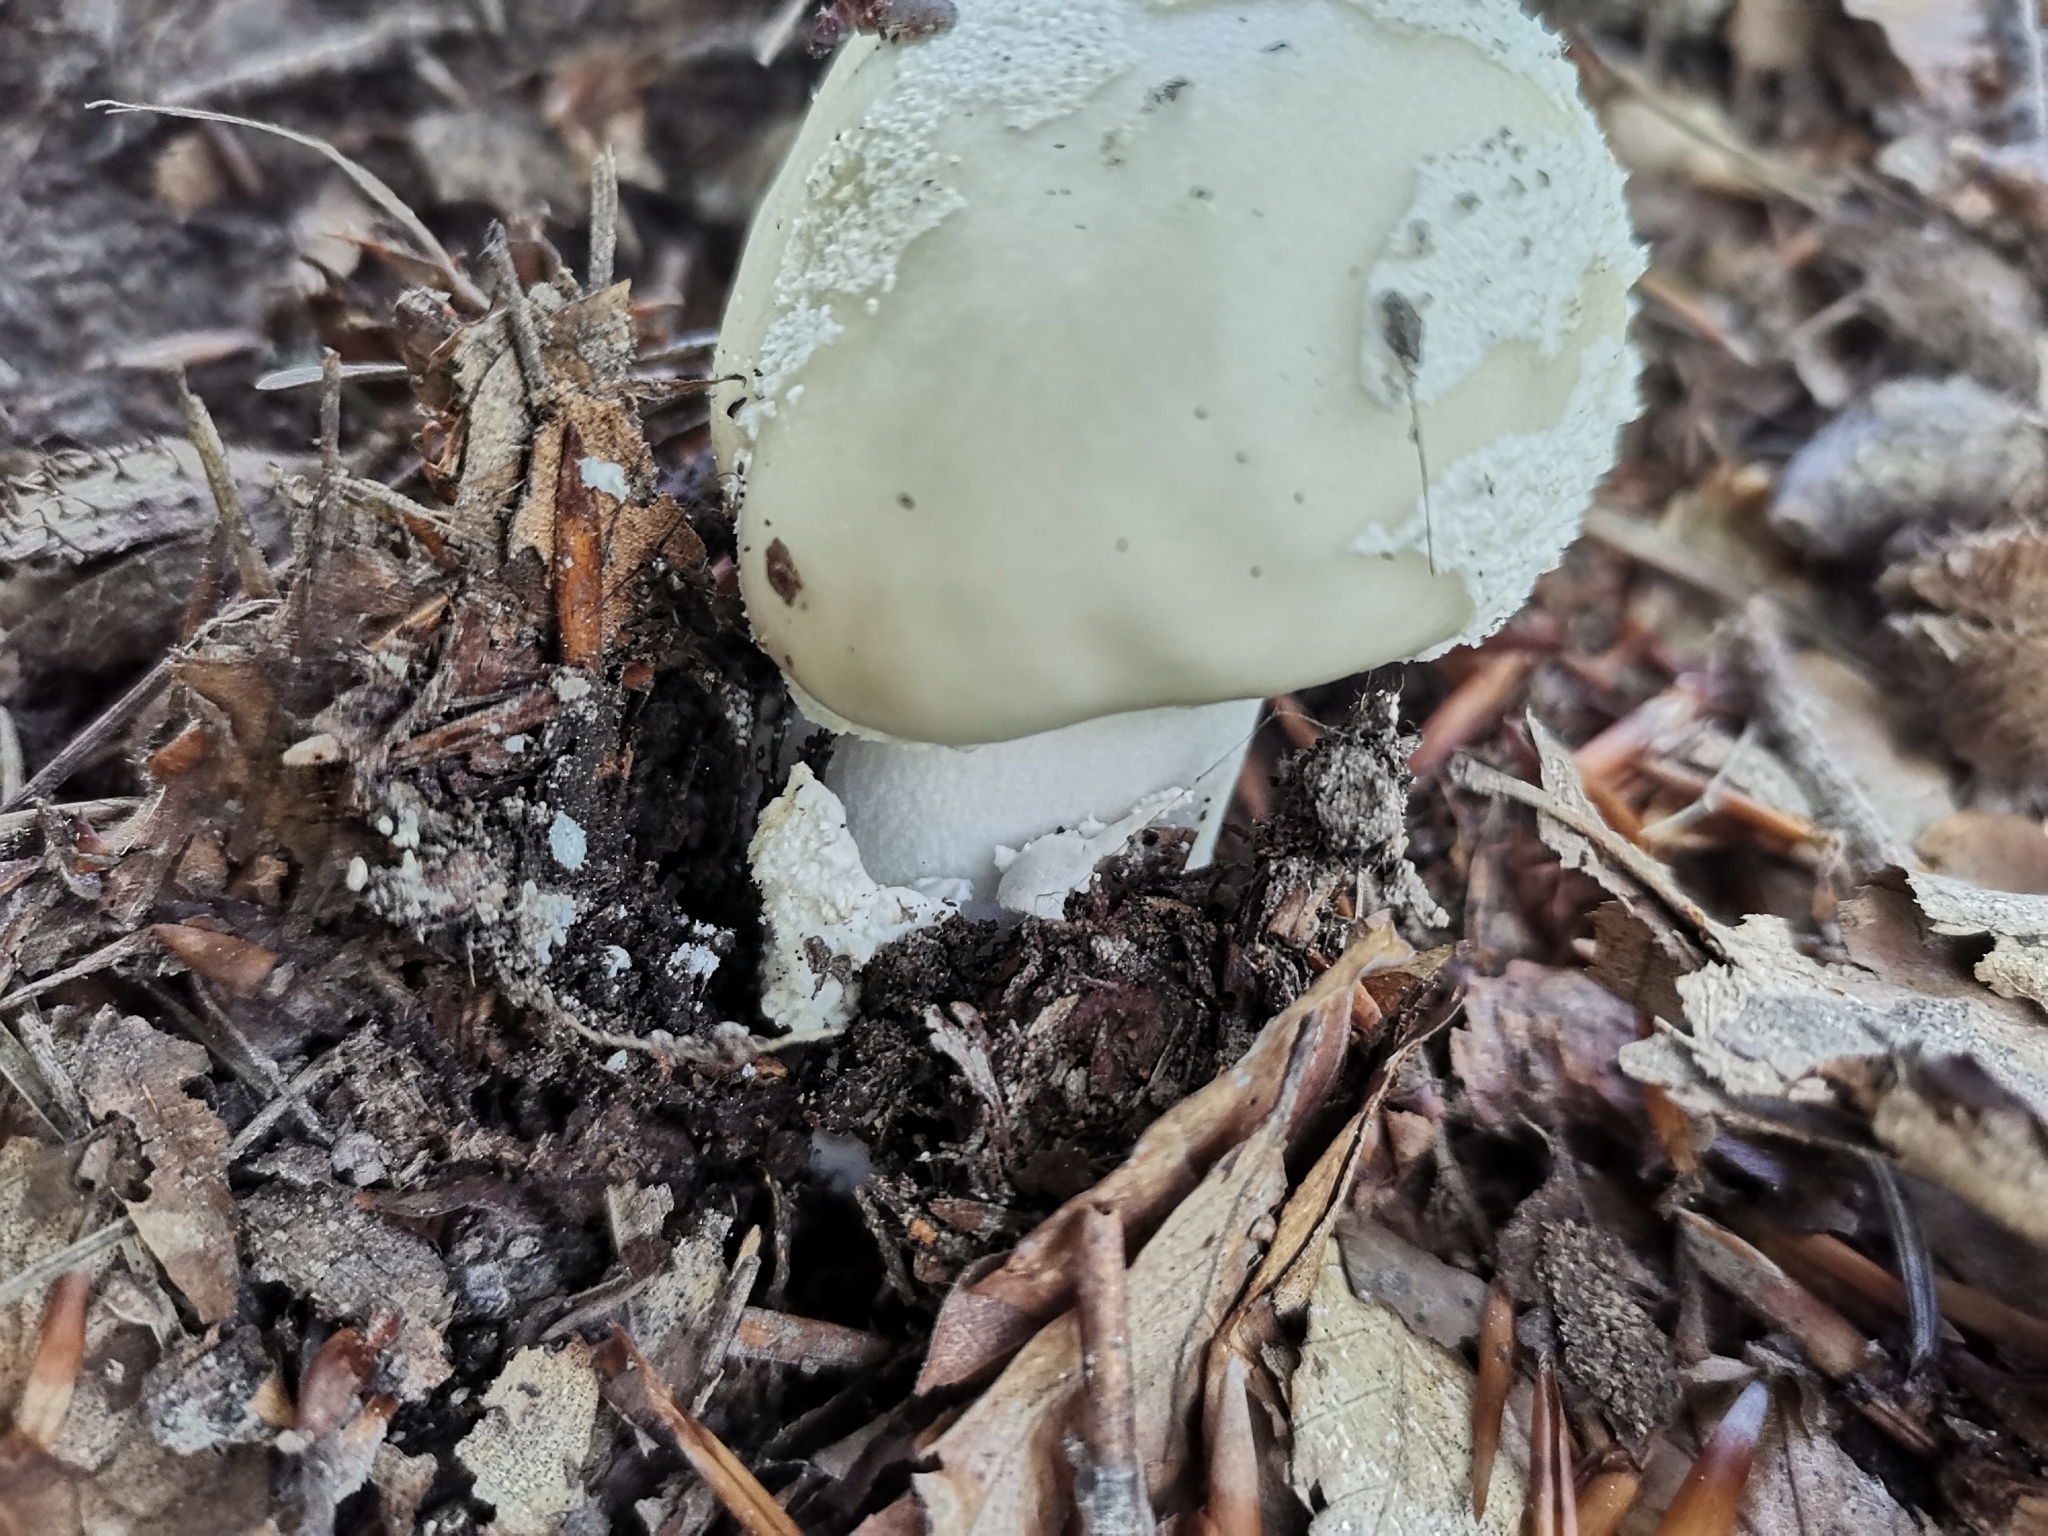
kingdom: Fungi
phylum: Basidiomycota
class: Agaricomycetes
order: Agaricales
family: Amanitaceae
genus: Amanita
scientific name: Amanita excelsa
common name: European false blusher
